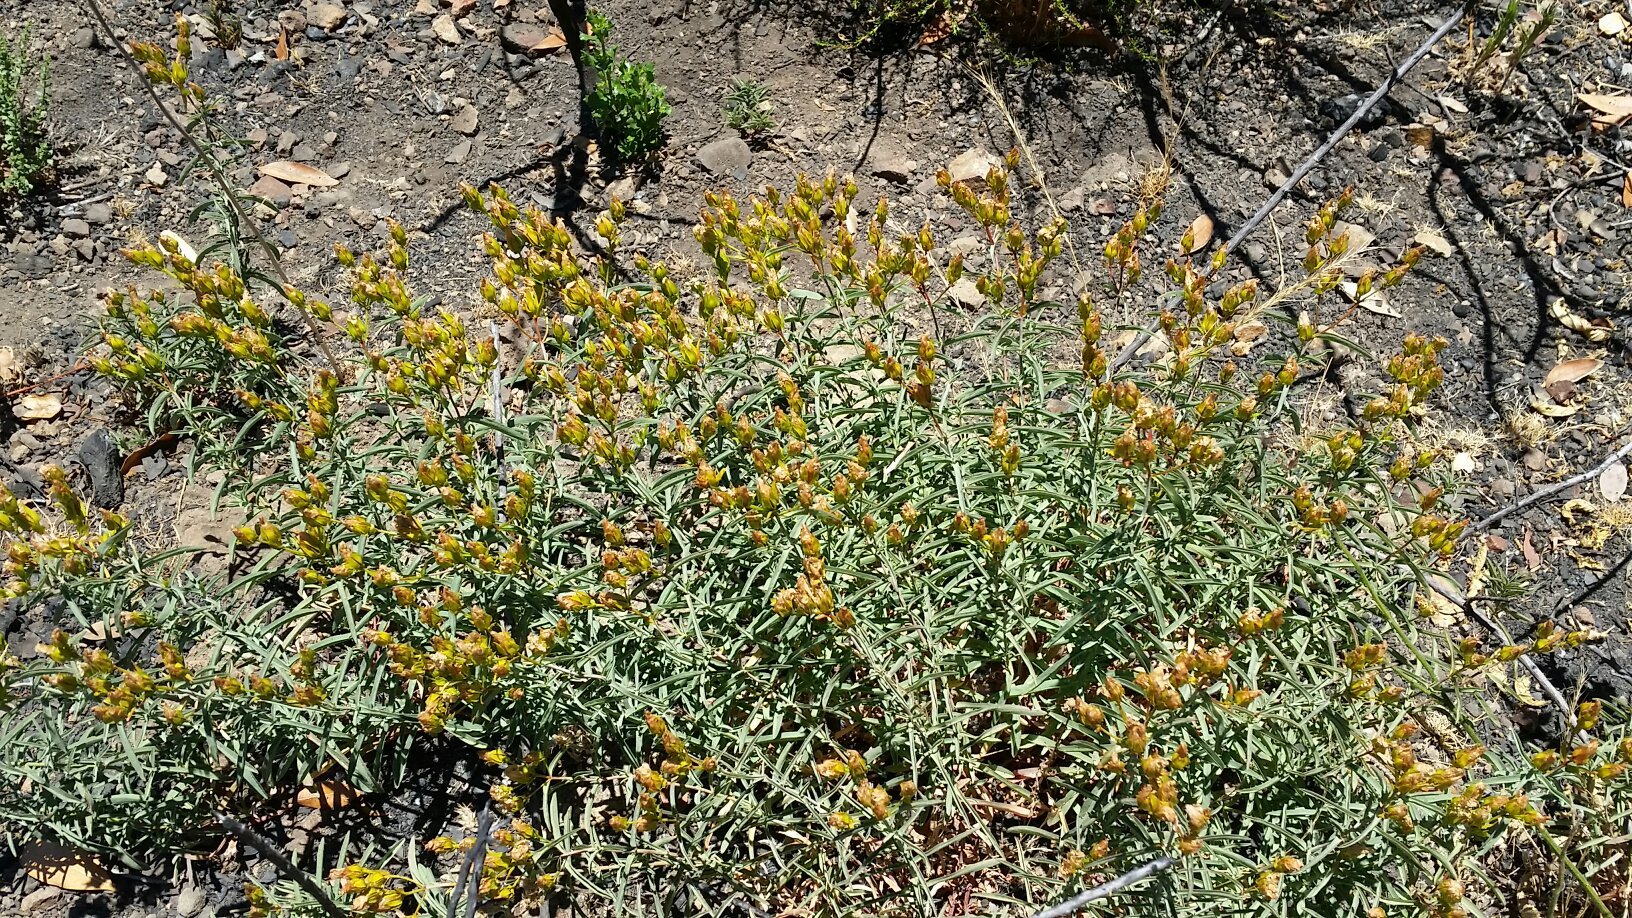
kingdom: Plantae
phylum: Tracheophyta
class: Magnoliopsida
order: Malpighiales
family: Hypericaceae
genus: Hypericum
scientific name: Hypericum concinnum
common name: Gold-wire
